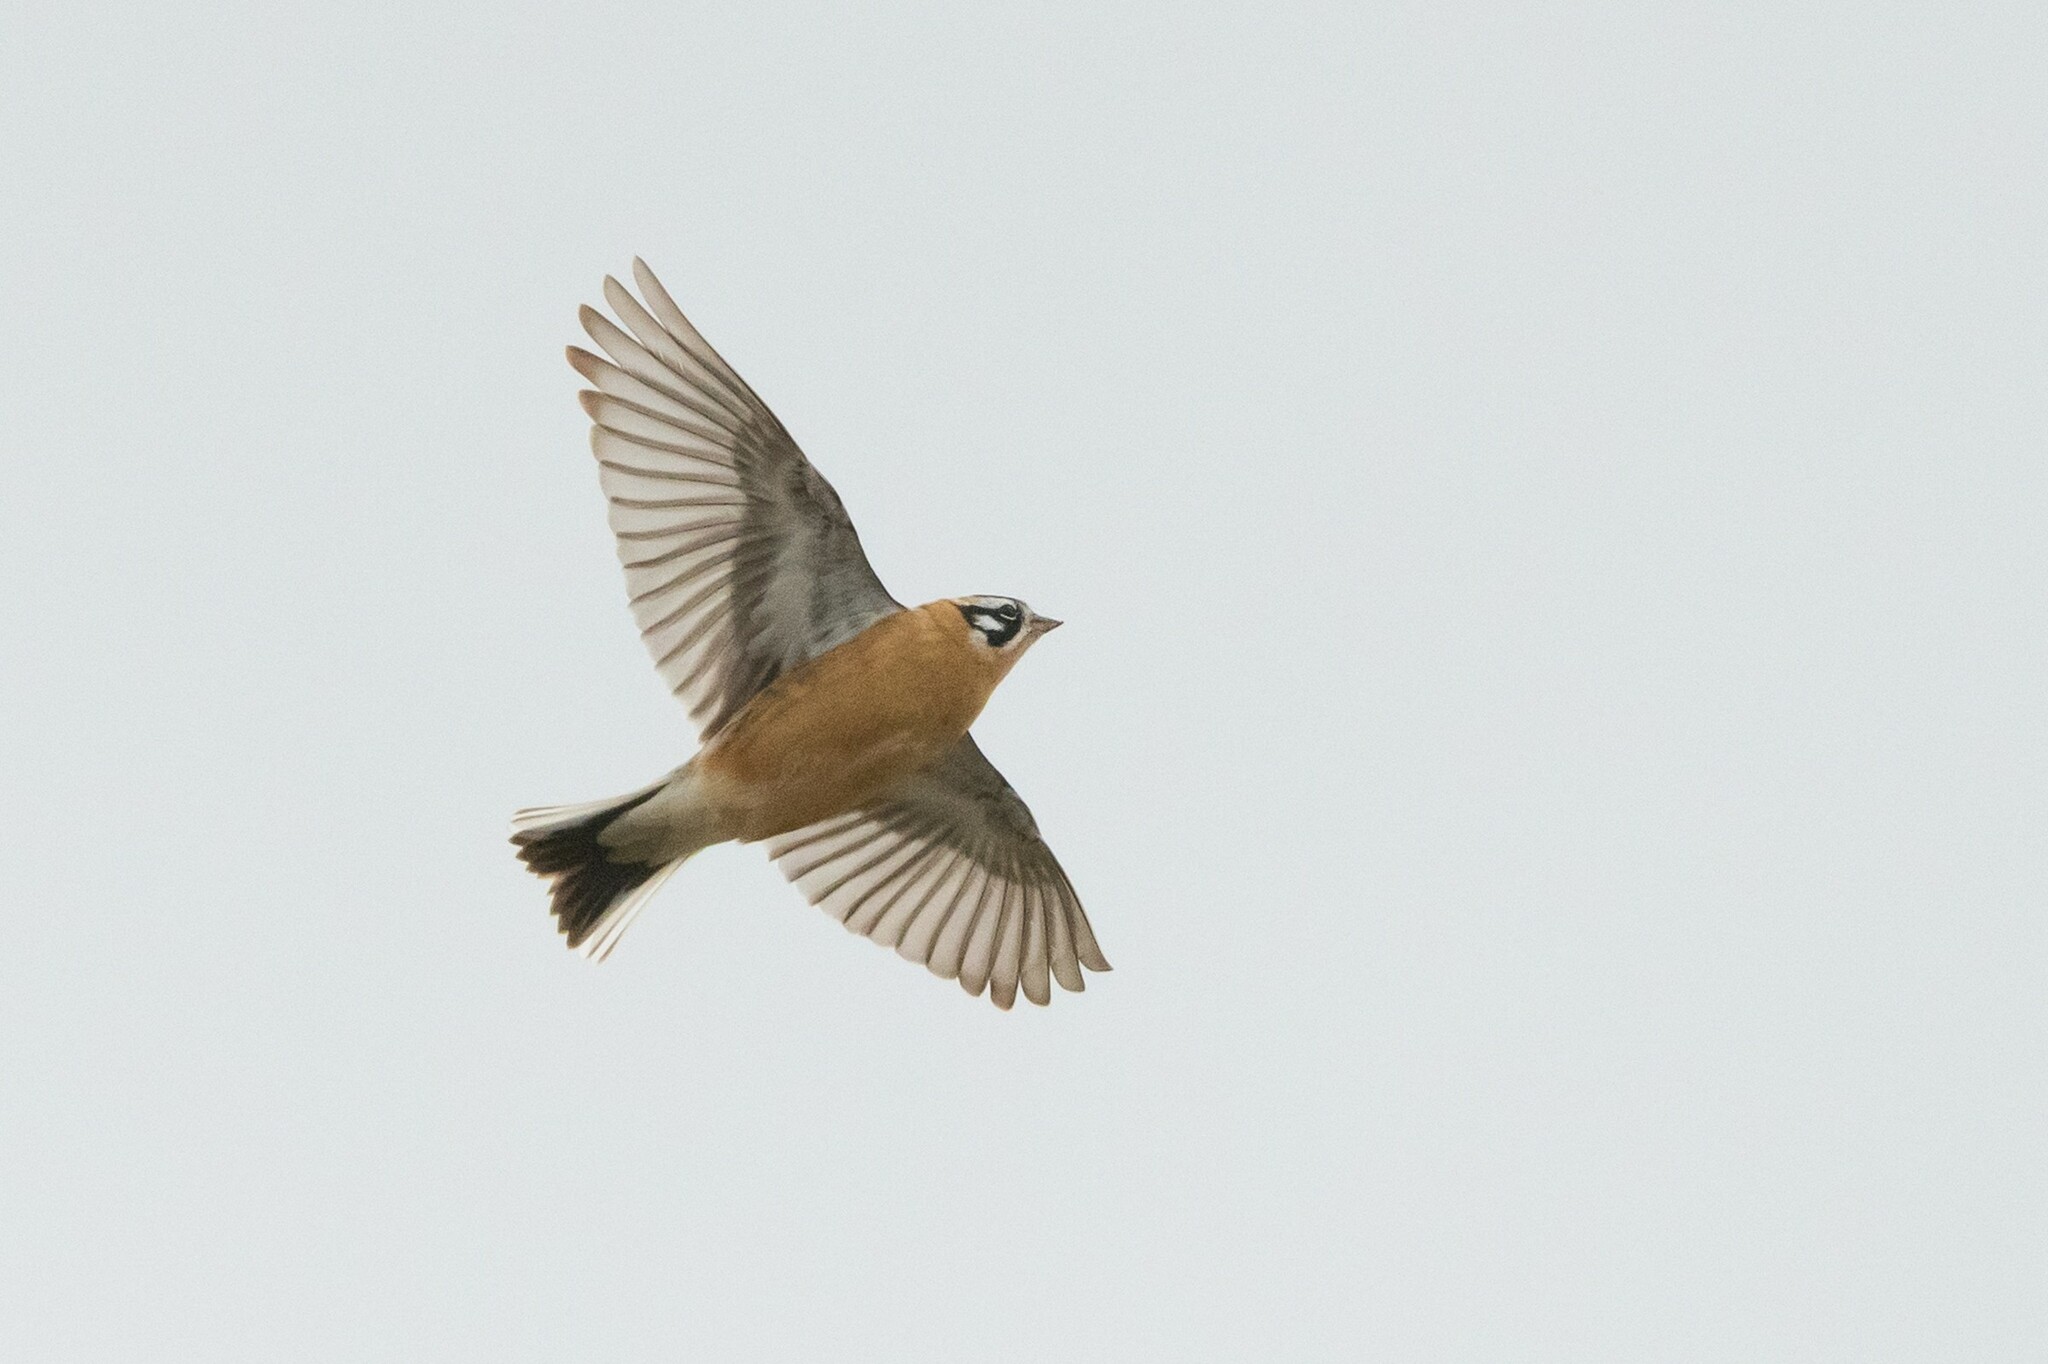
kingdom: Animalia
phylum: Chordata
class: Aves
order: Passeriformes
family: Calcariidae
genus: Calcarius
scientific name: Calcarius pictus
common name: Smith's longspur
